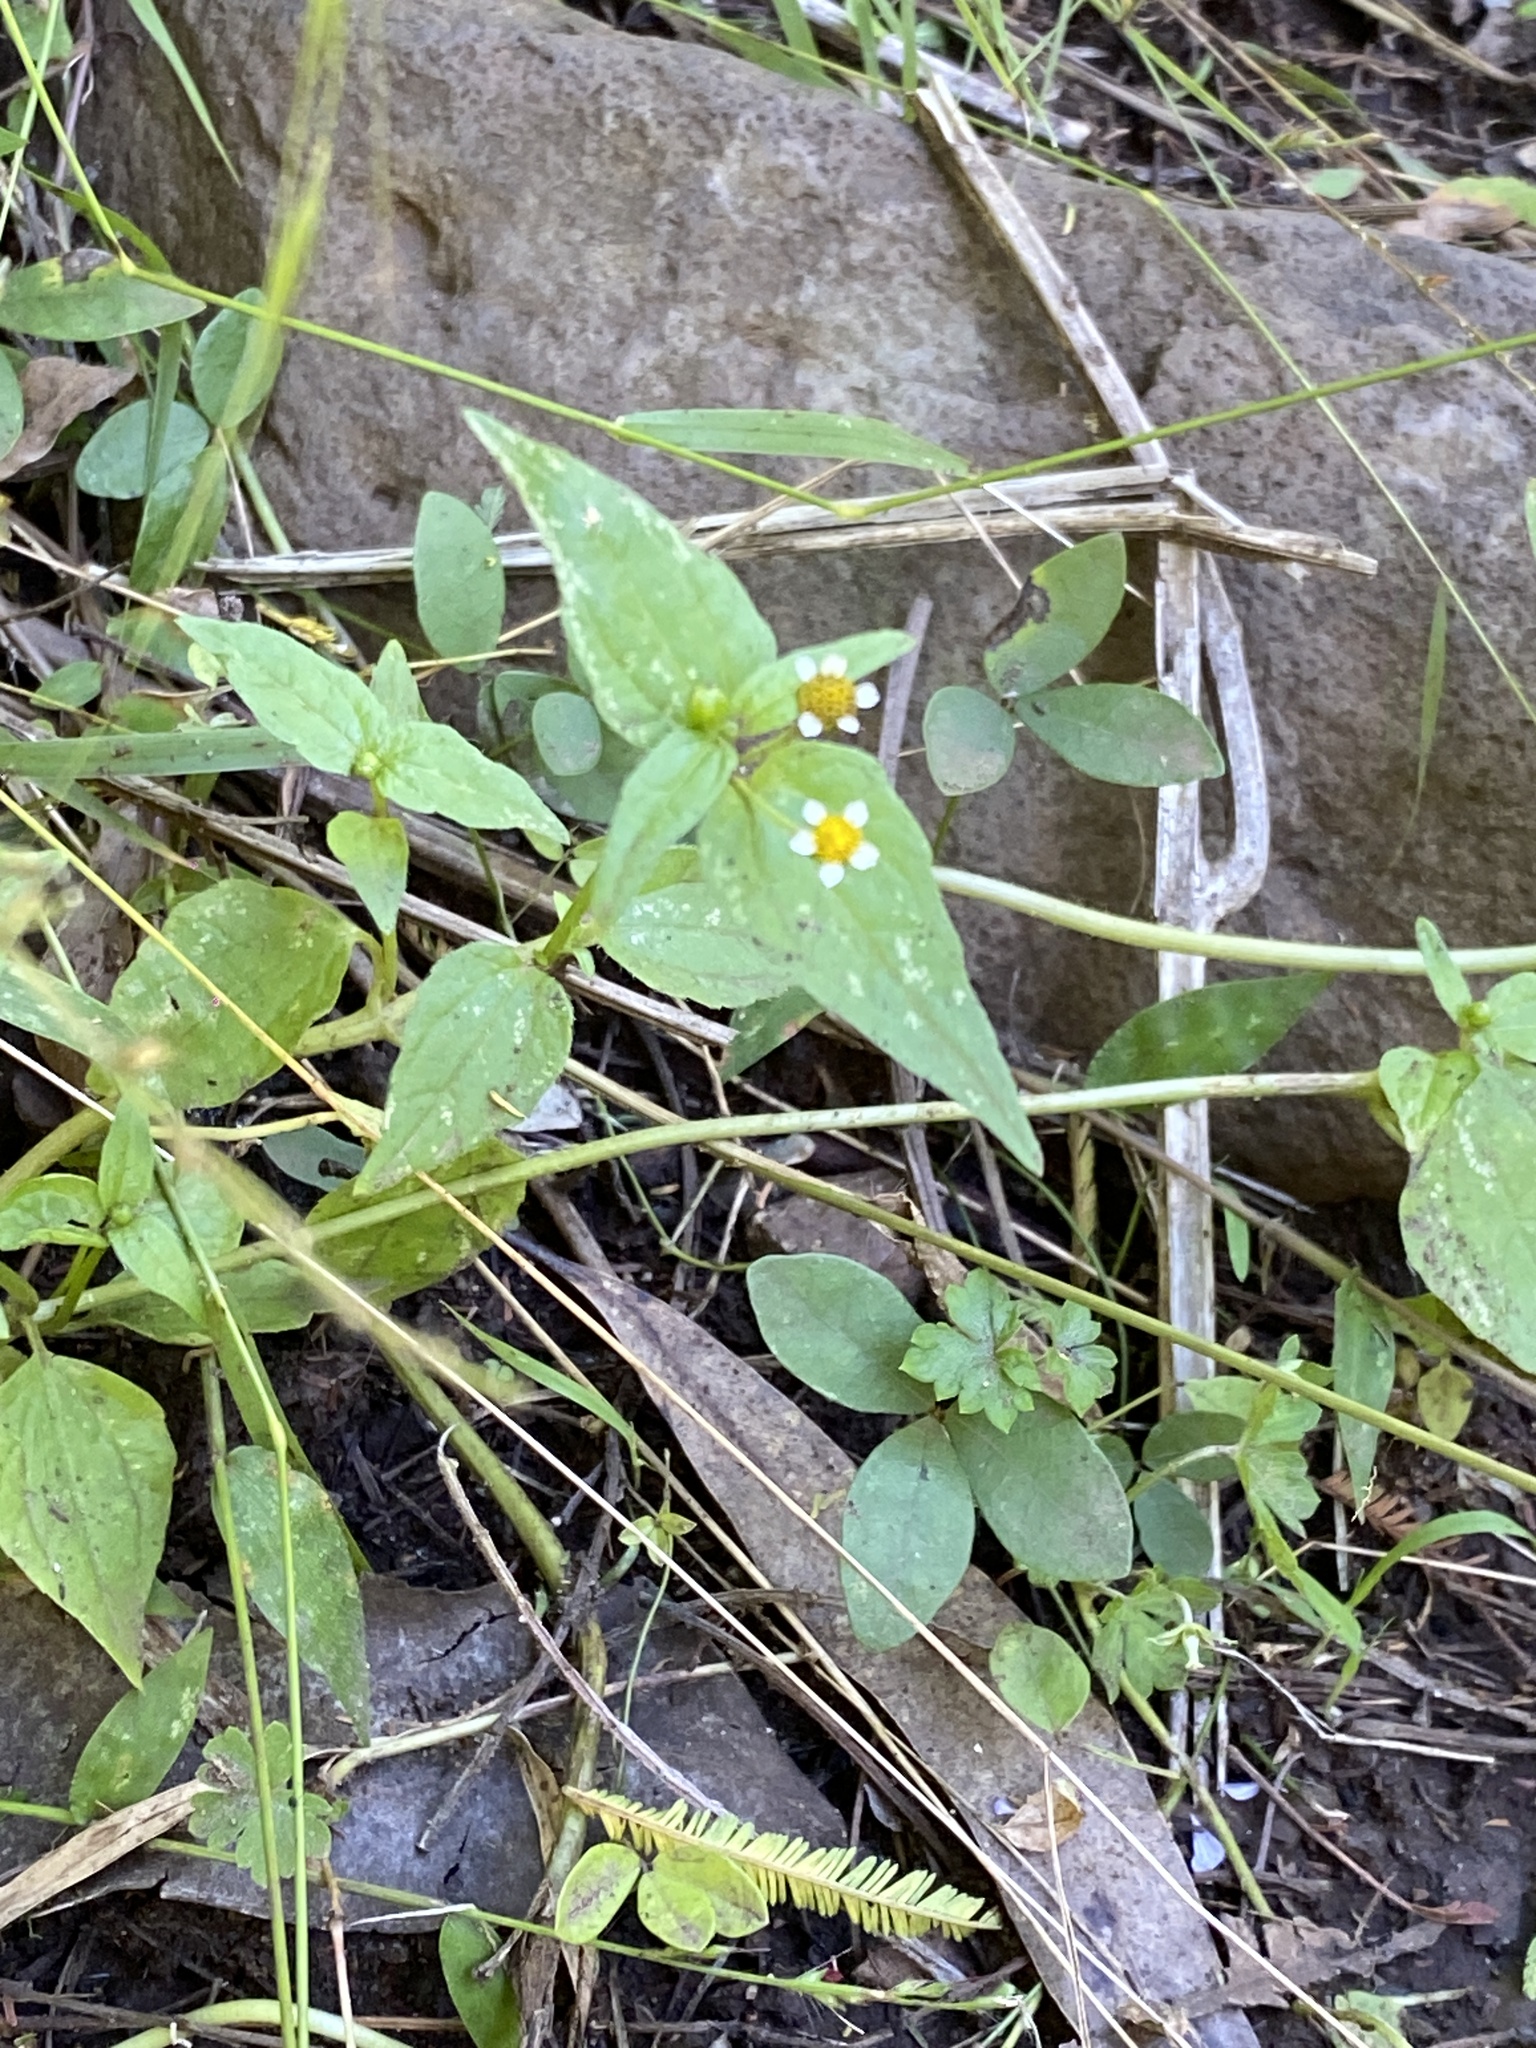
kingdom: Plantae
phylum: Tracheophyta
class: Magnoliopsida
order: Asterales
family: Asteraceae
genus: Galinsoga
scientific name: Galinsoga parviflora
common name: Gallant soldier
